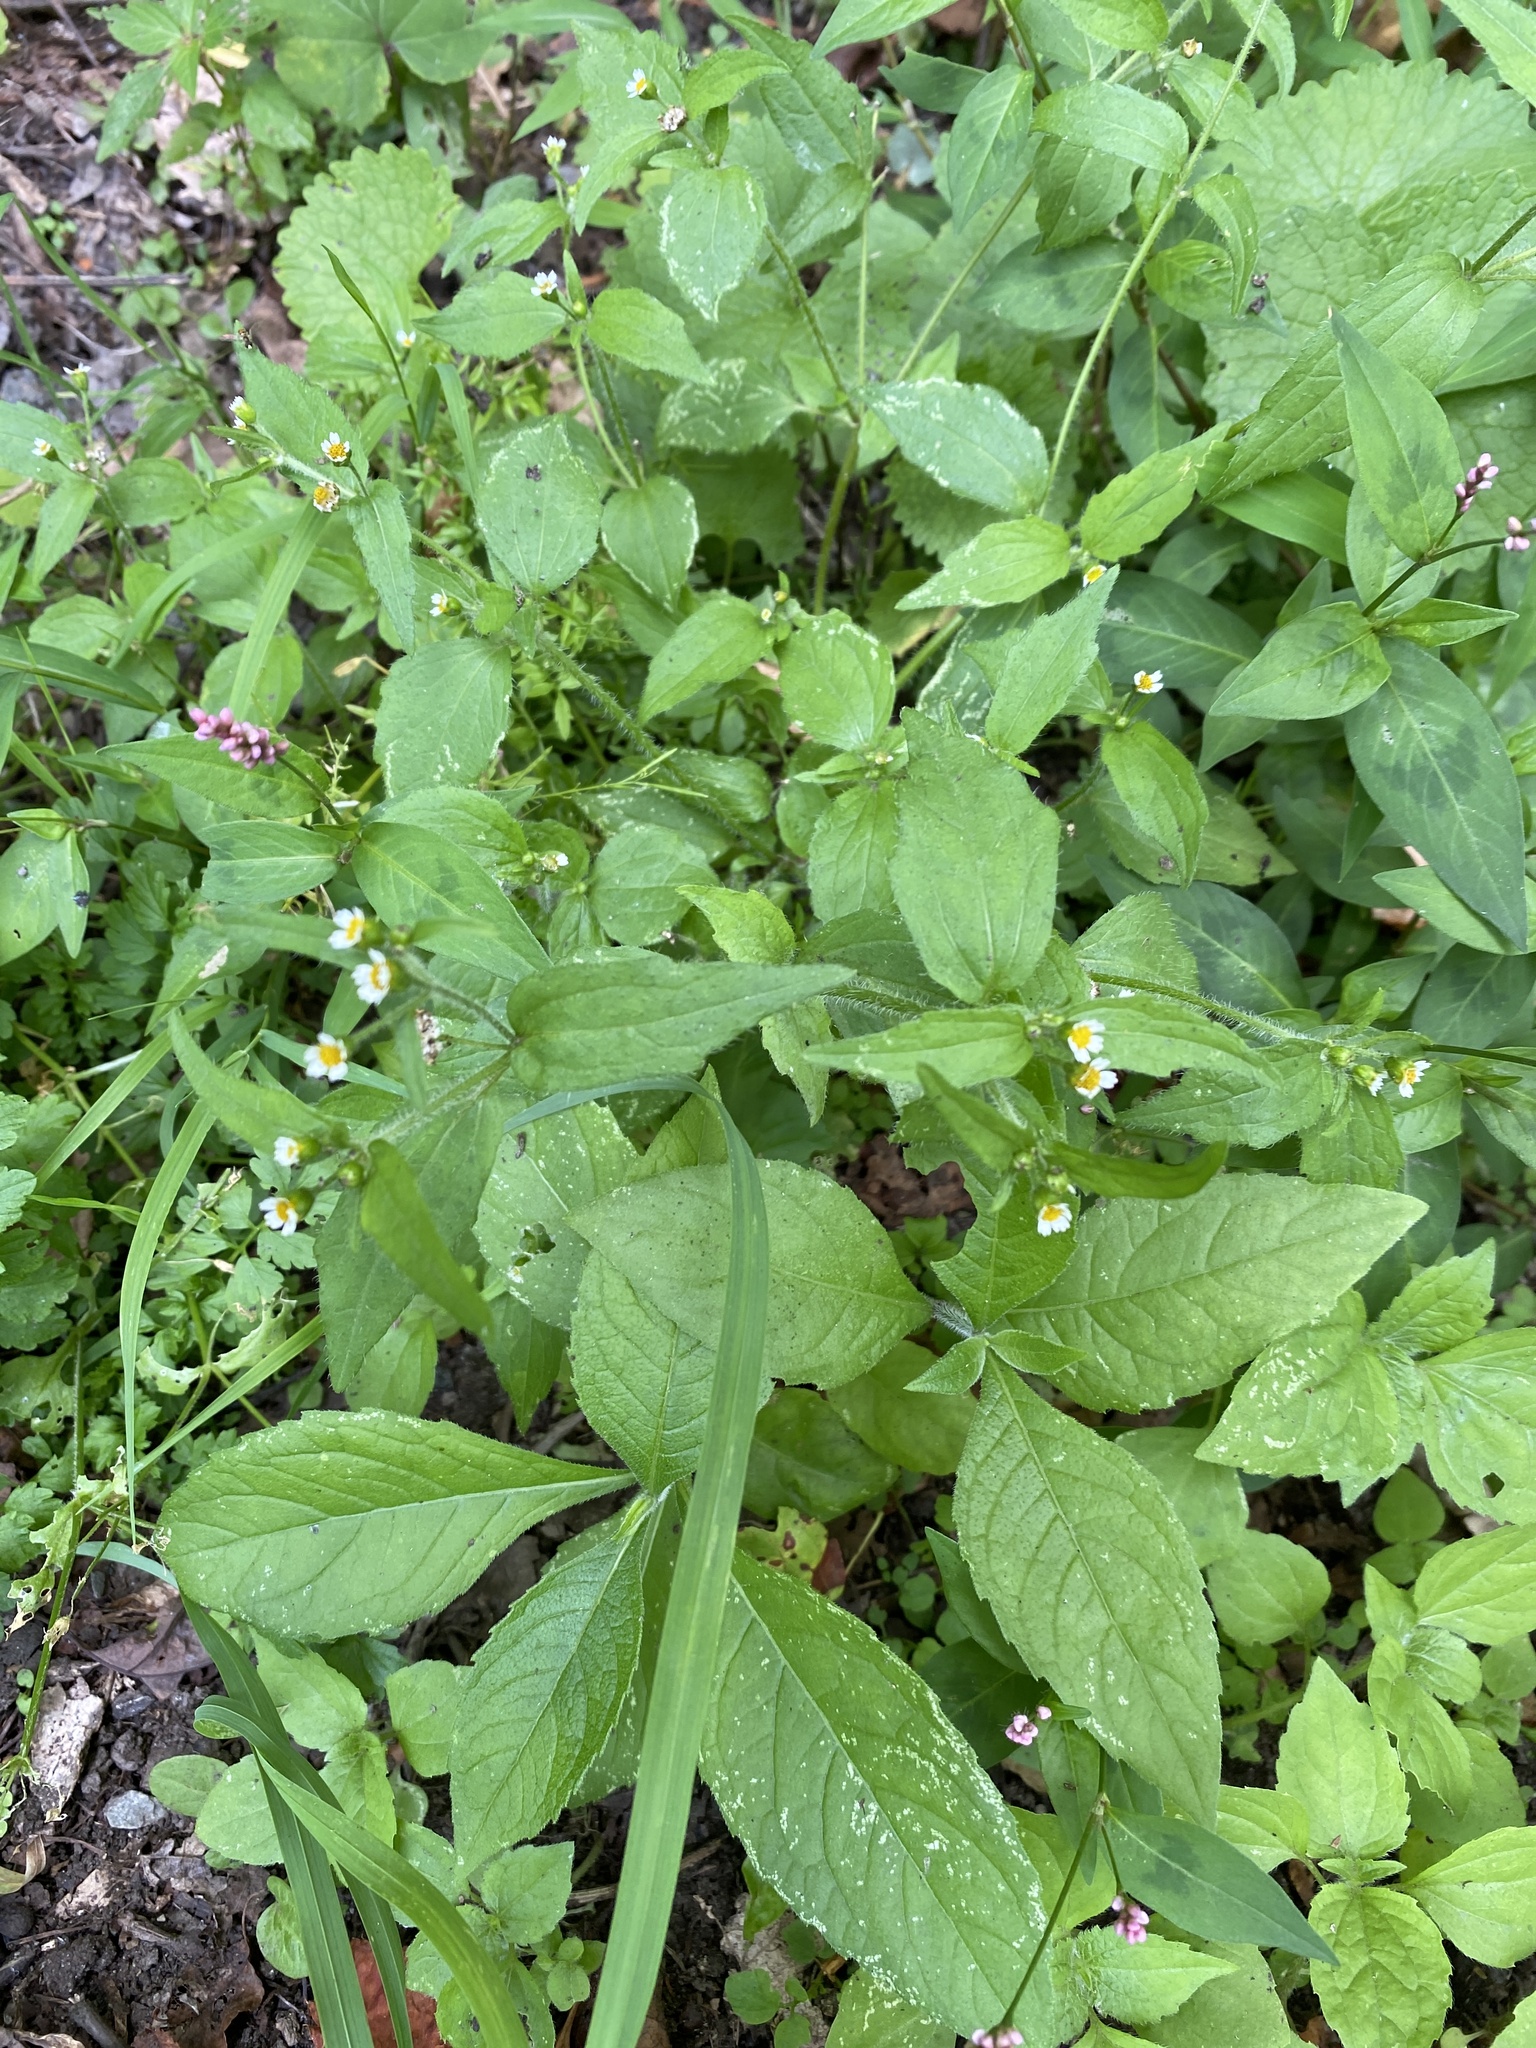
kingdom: Plantae
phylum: Tracheophyta
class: Magnoliopsida
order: Asterales
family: Asteraceae
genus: Galinsoga
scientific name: Galinsoga quadriradiata
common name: Shaggy soldier
